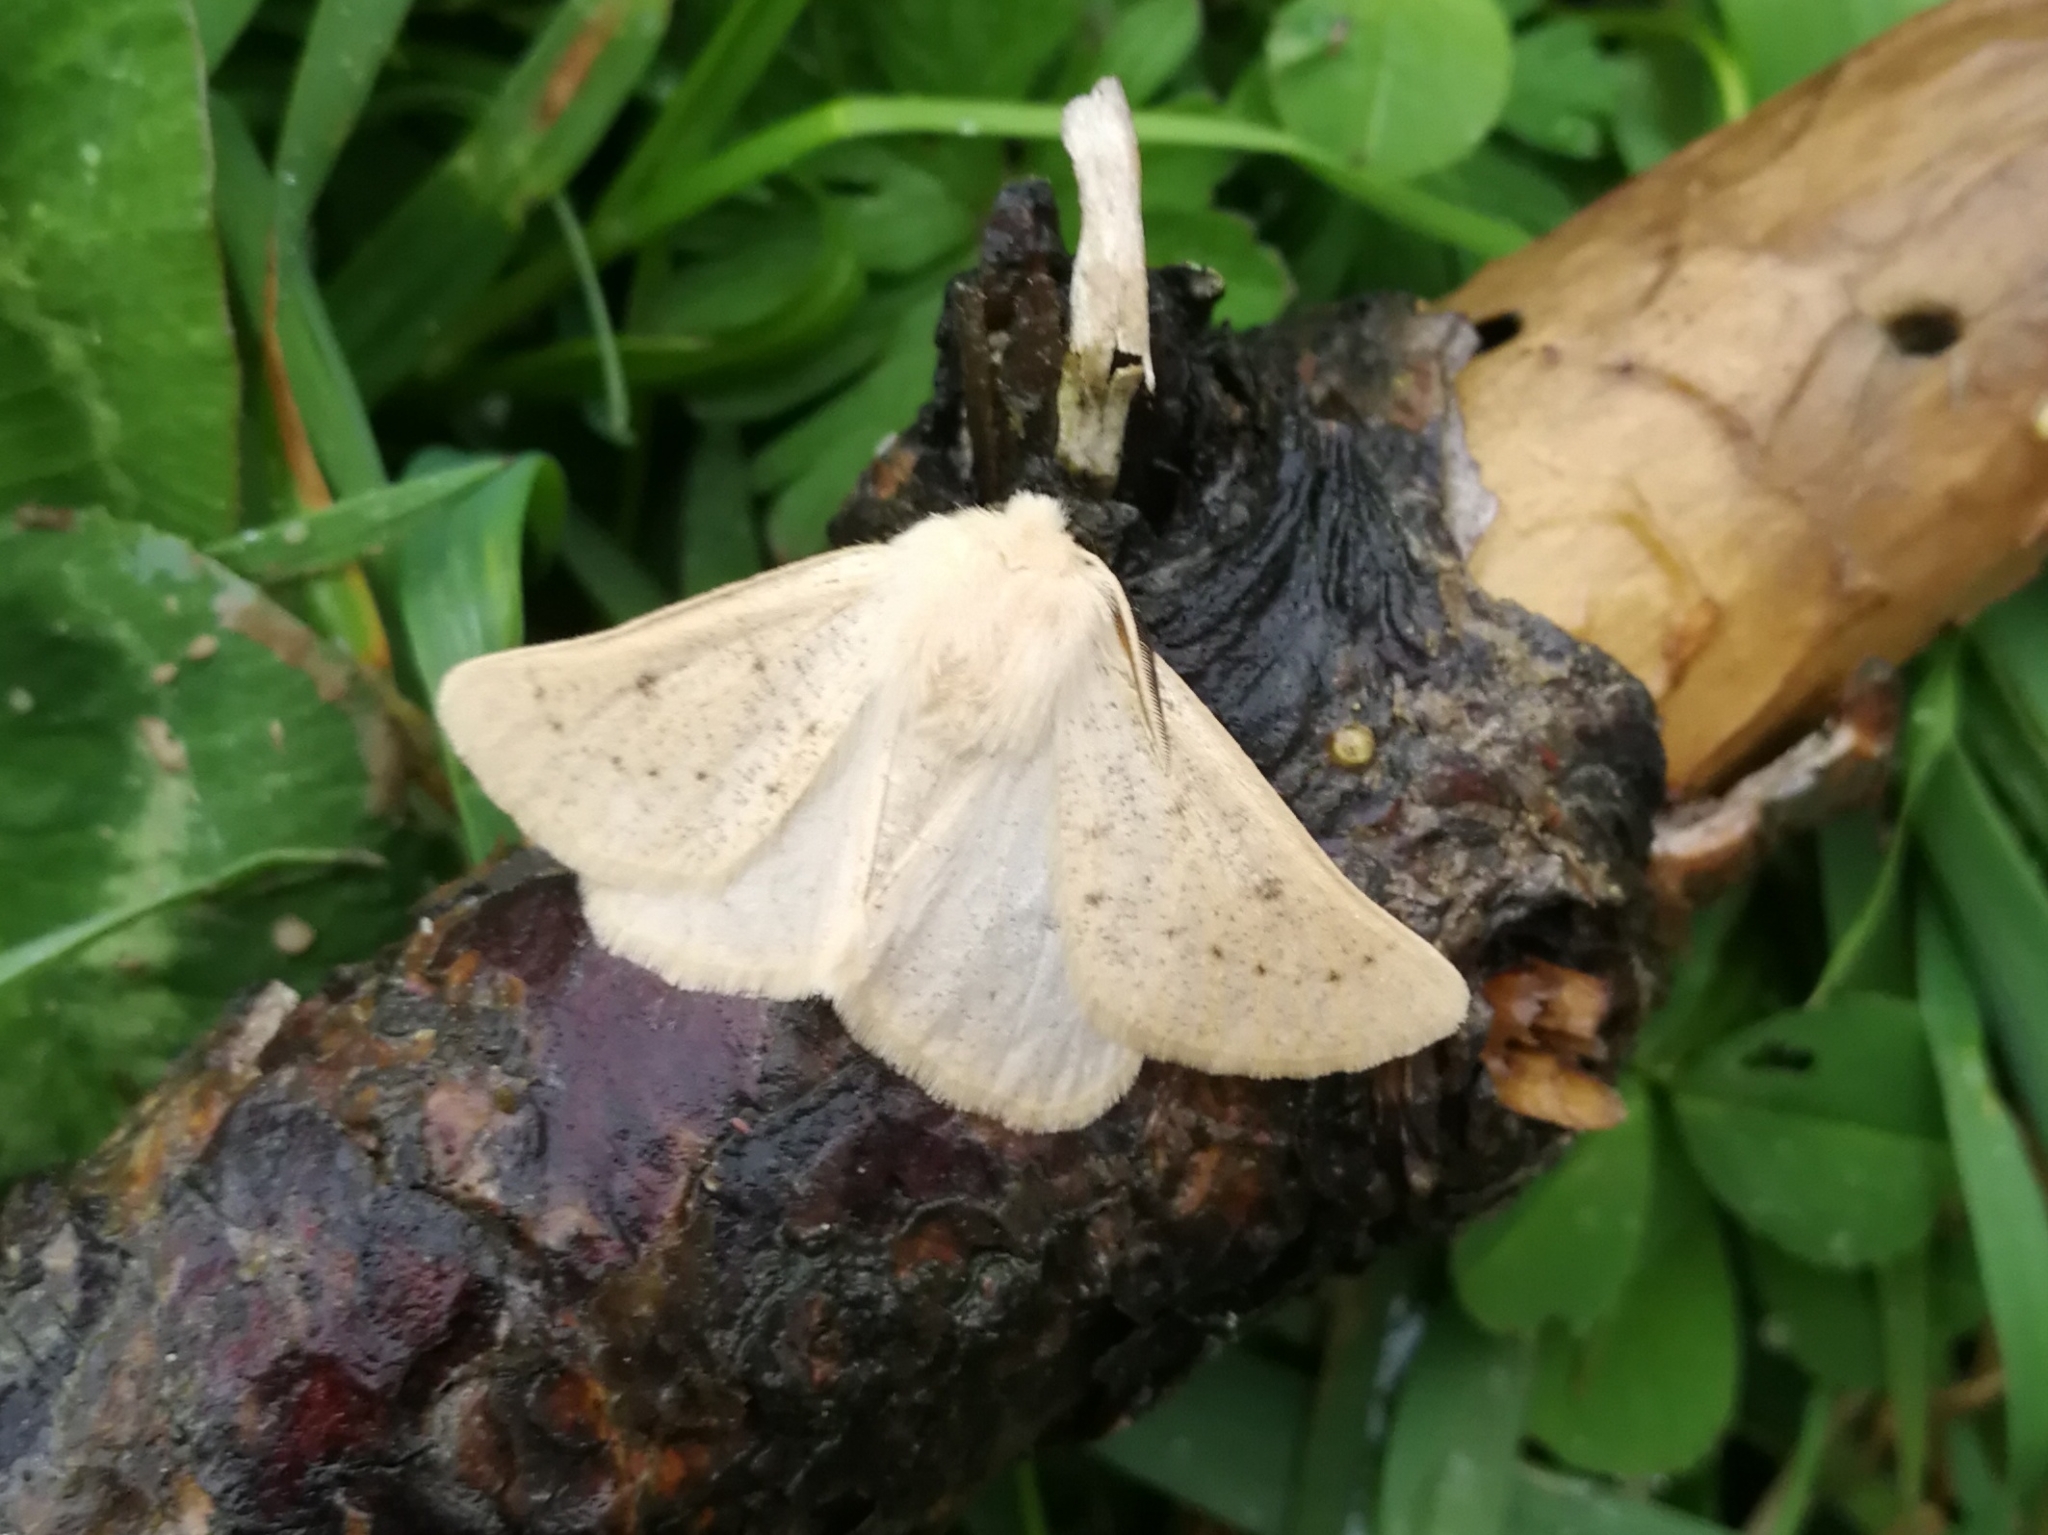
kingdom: Animalia
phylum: Arthropoda
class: Insecta
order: Lepidoptera
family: Geometridae
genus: Dyscia
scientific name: Dyscia lentiscaria
